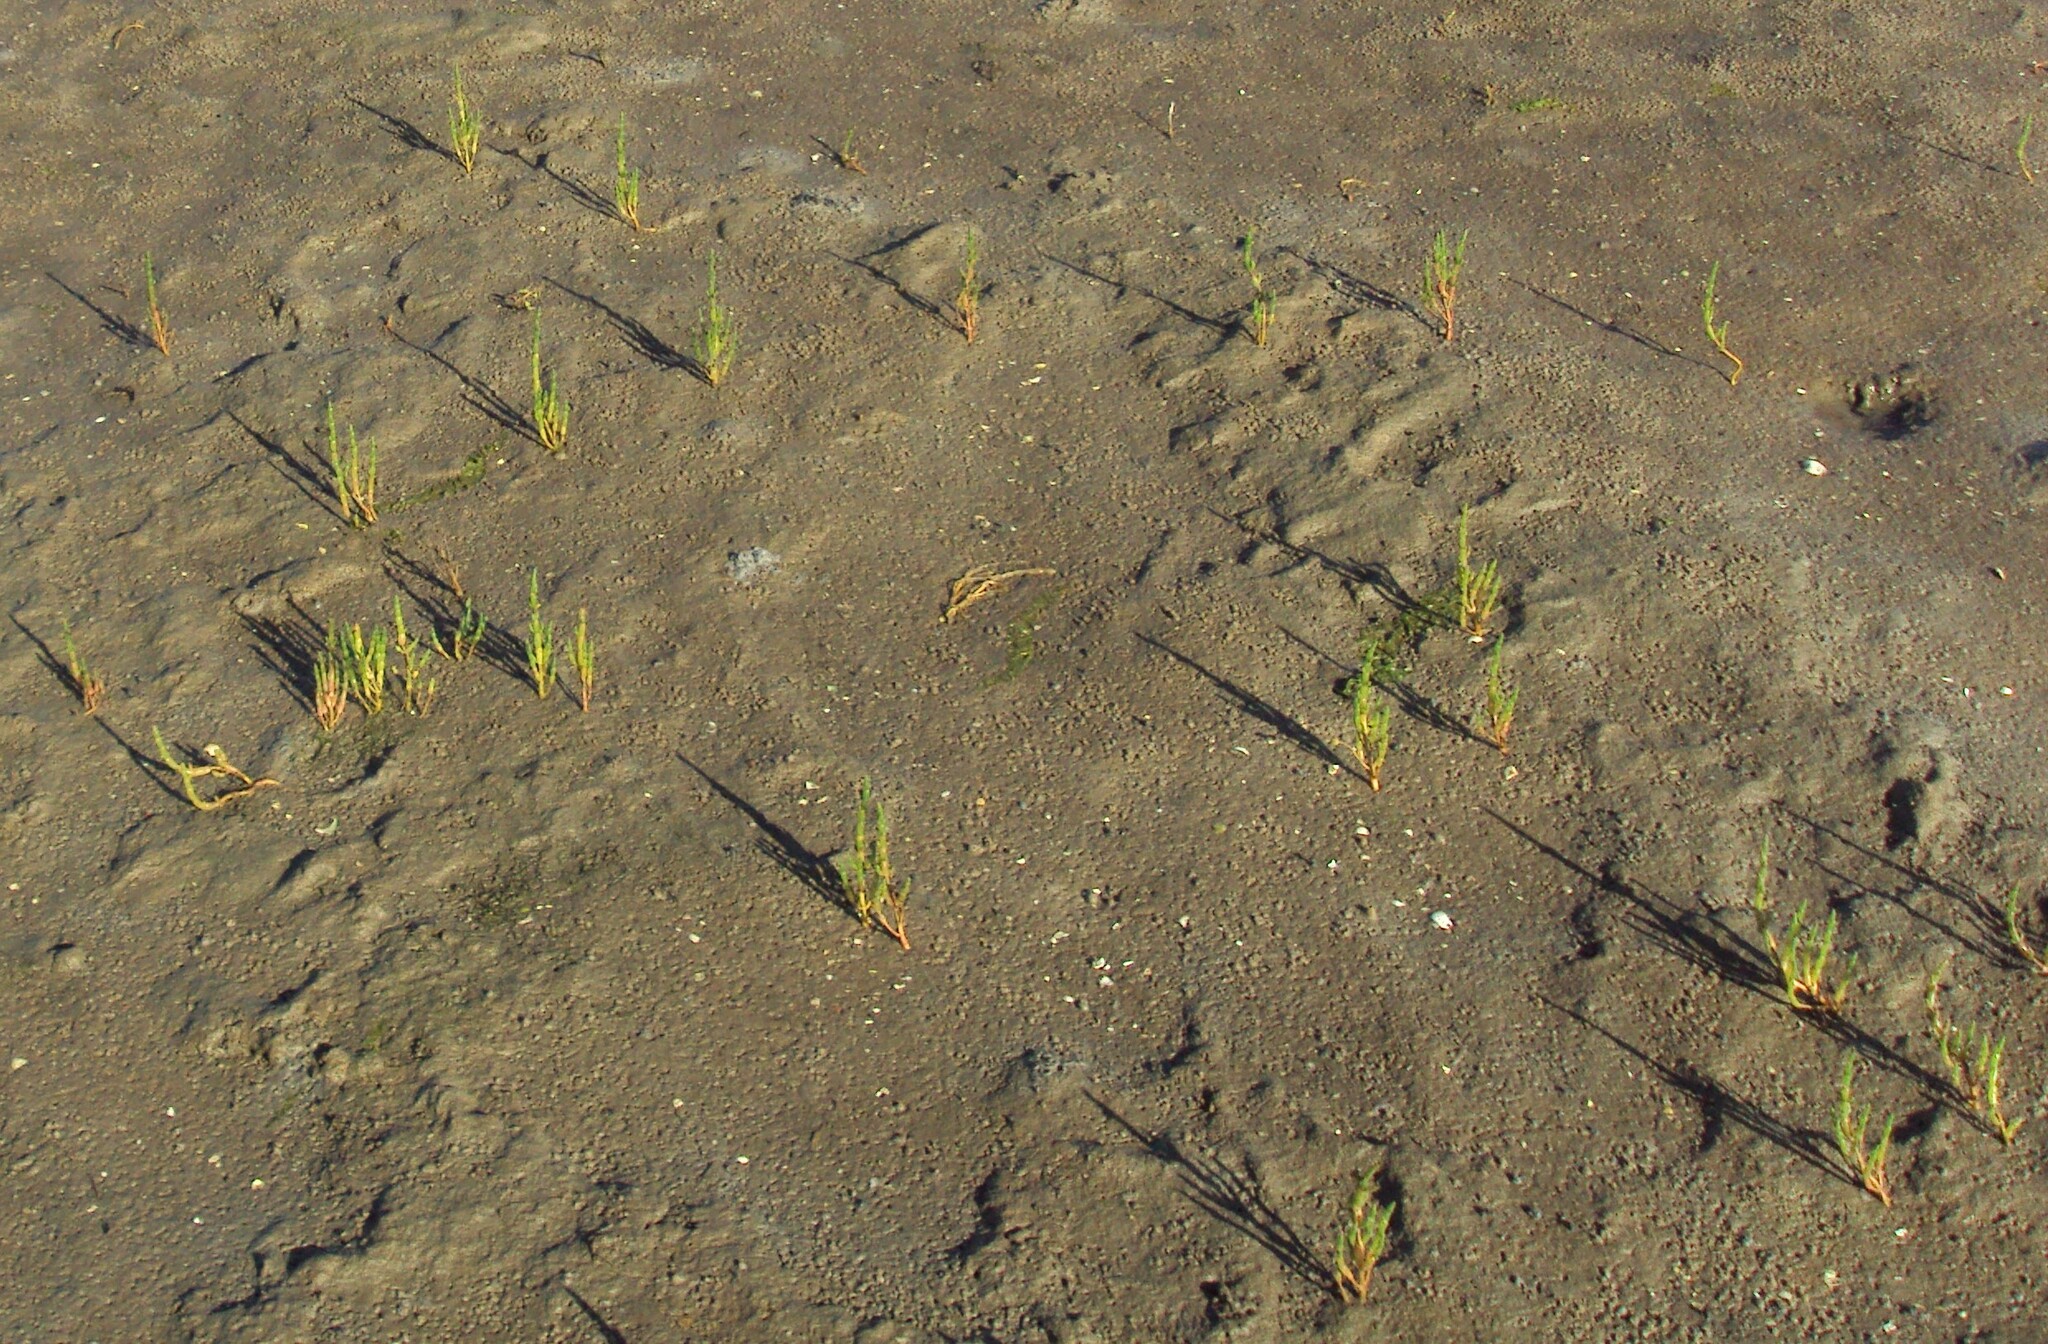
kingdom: Plantae
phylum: Tracheophyta
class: Magnoliopsida
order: Caryophyllales
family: Amaranthaceae
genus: Salicornia
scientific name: Salicornia europaea
